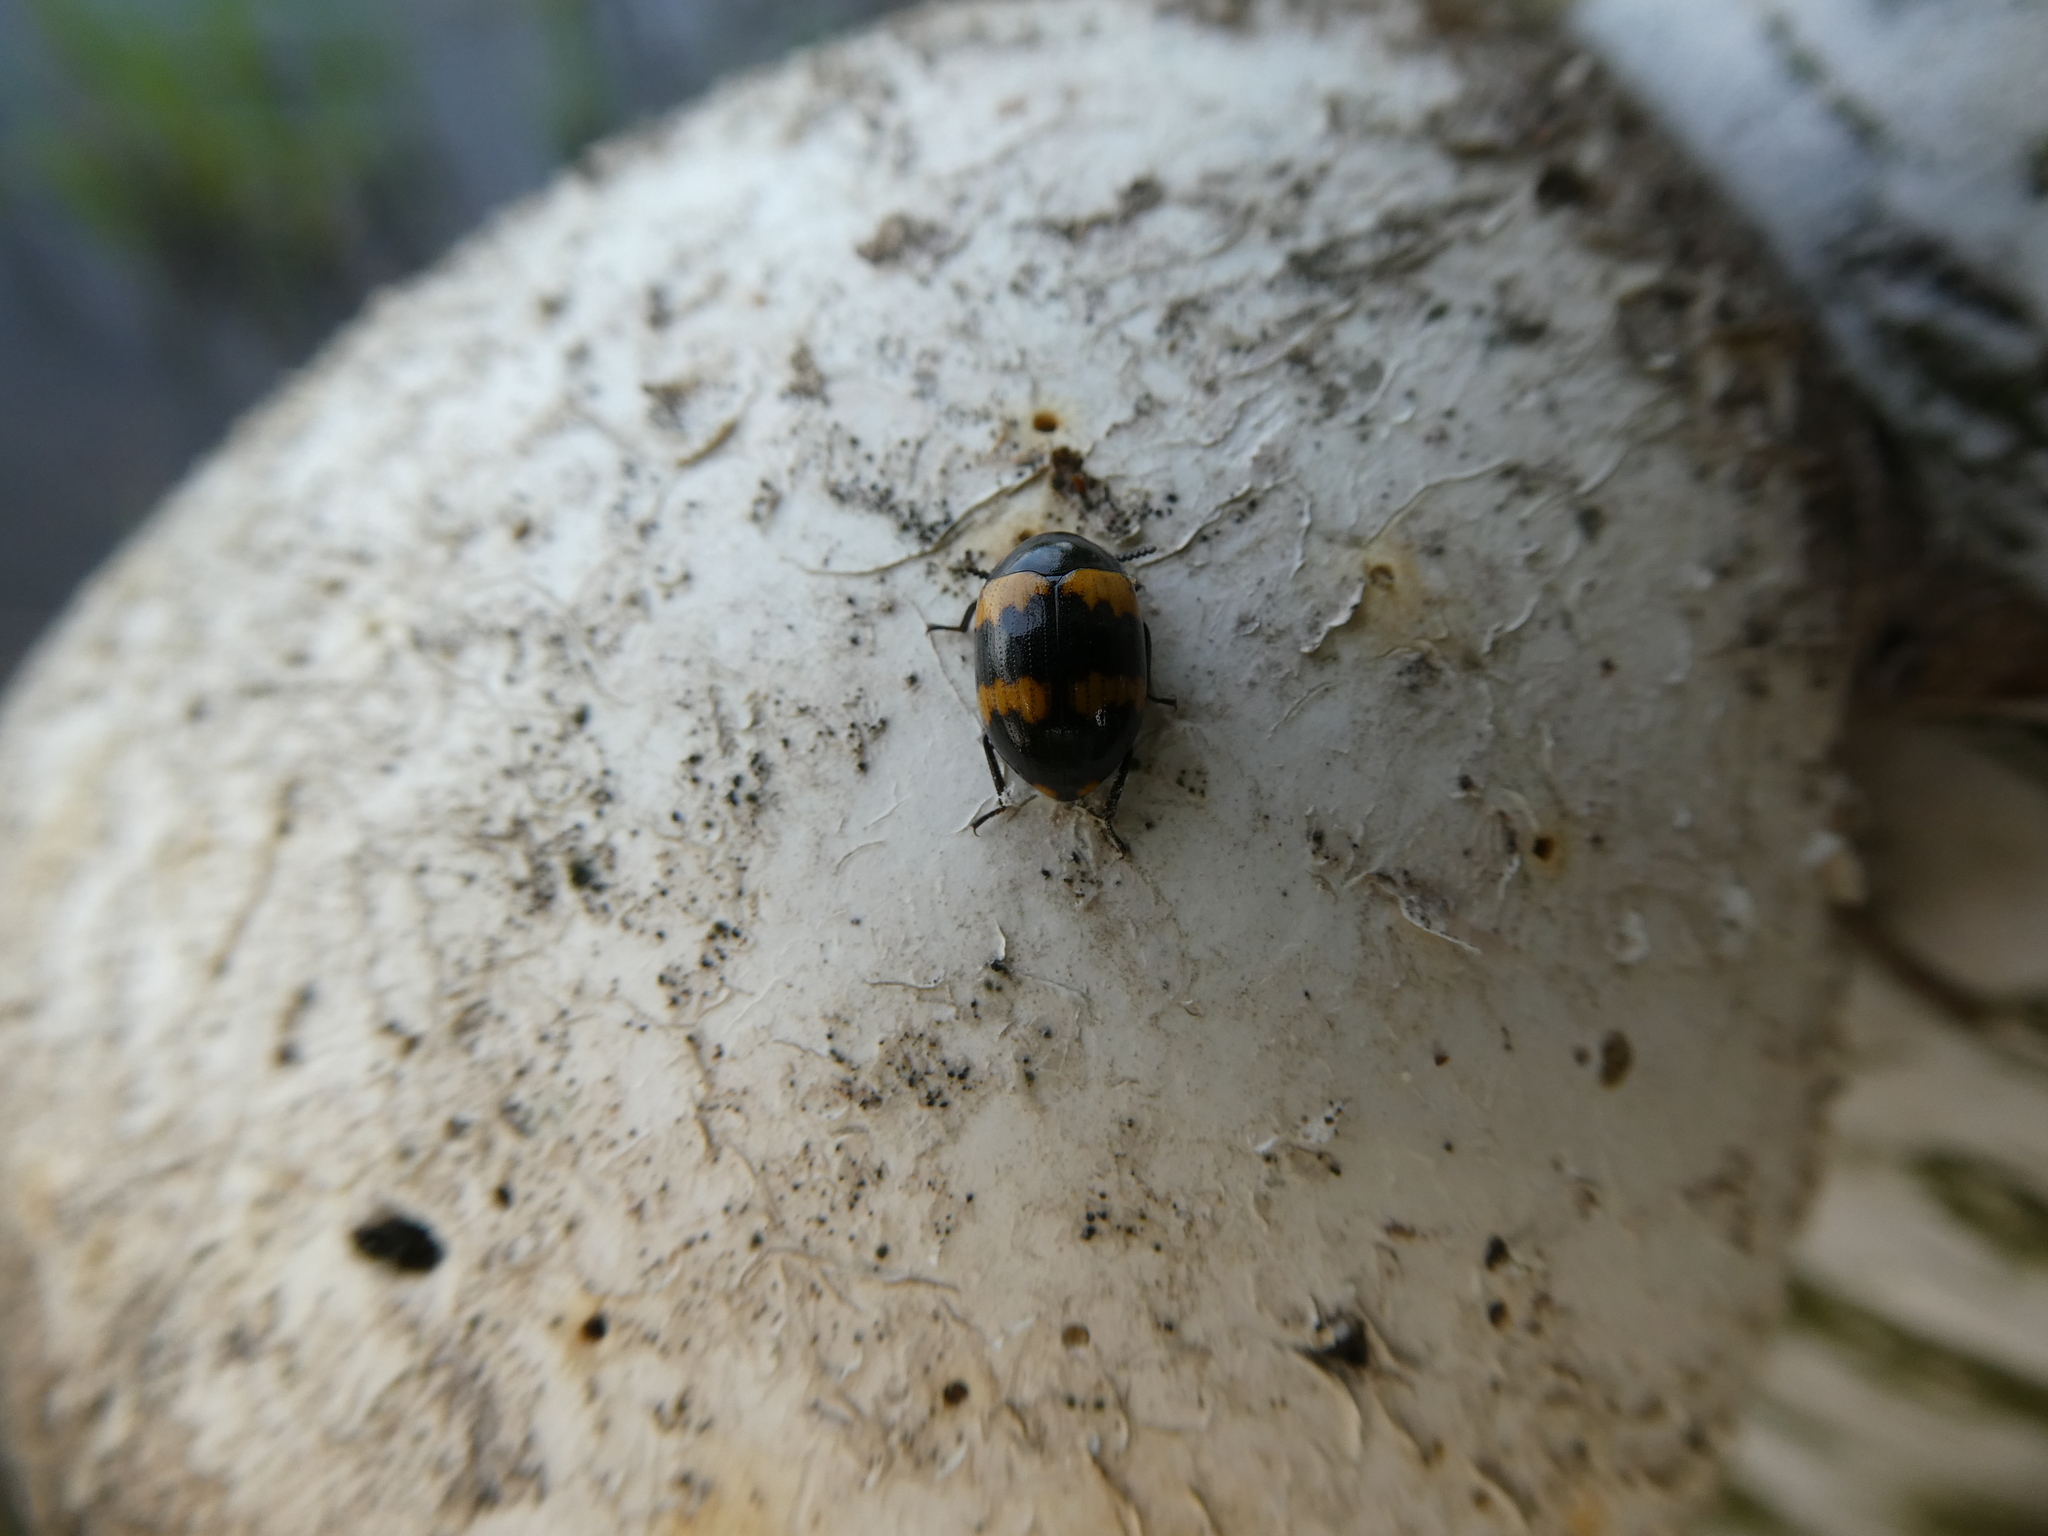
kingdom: Animalia
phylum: Arthropoda
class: Insecta
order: Coleoptera
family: Tenebrionidae
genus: Diaperis
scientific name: Diaperis boleti
